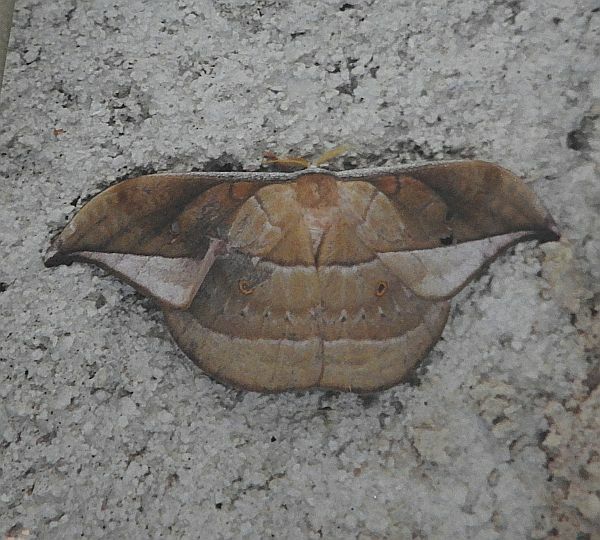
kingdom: Animalia
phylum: Arthropoda
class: Insecta
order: Lepidoptera
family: Saturniidae
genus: Copaxa
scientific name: Copaxa decrescens
